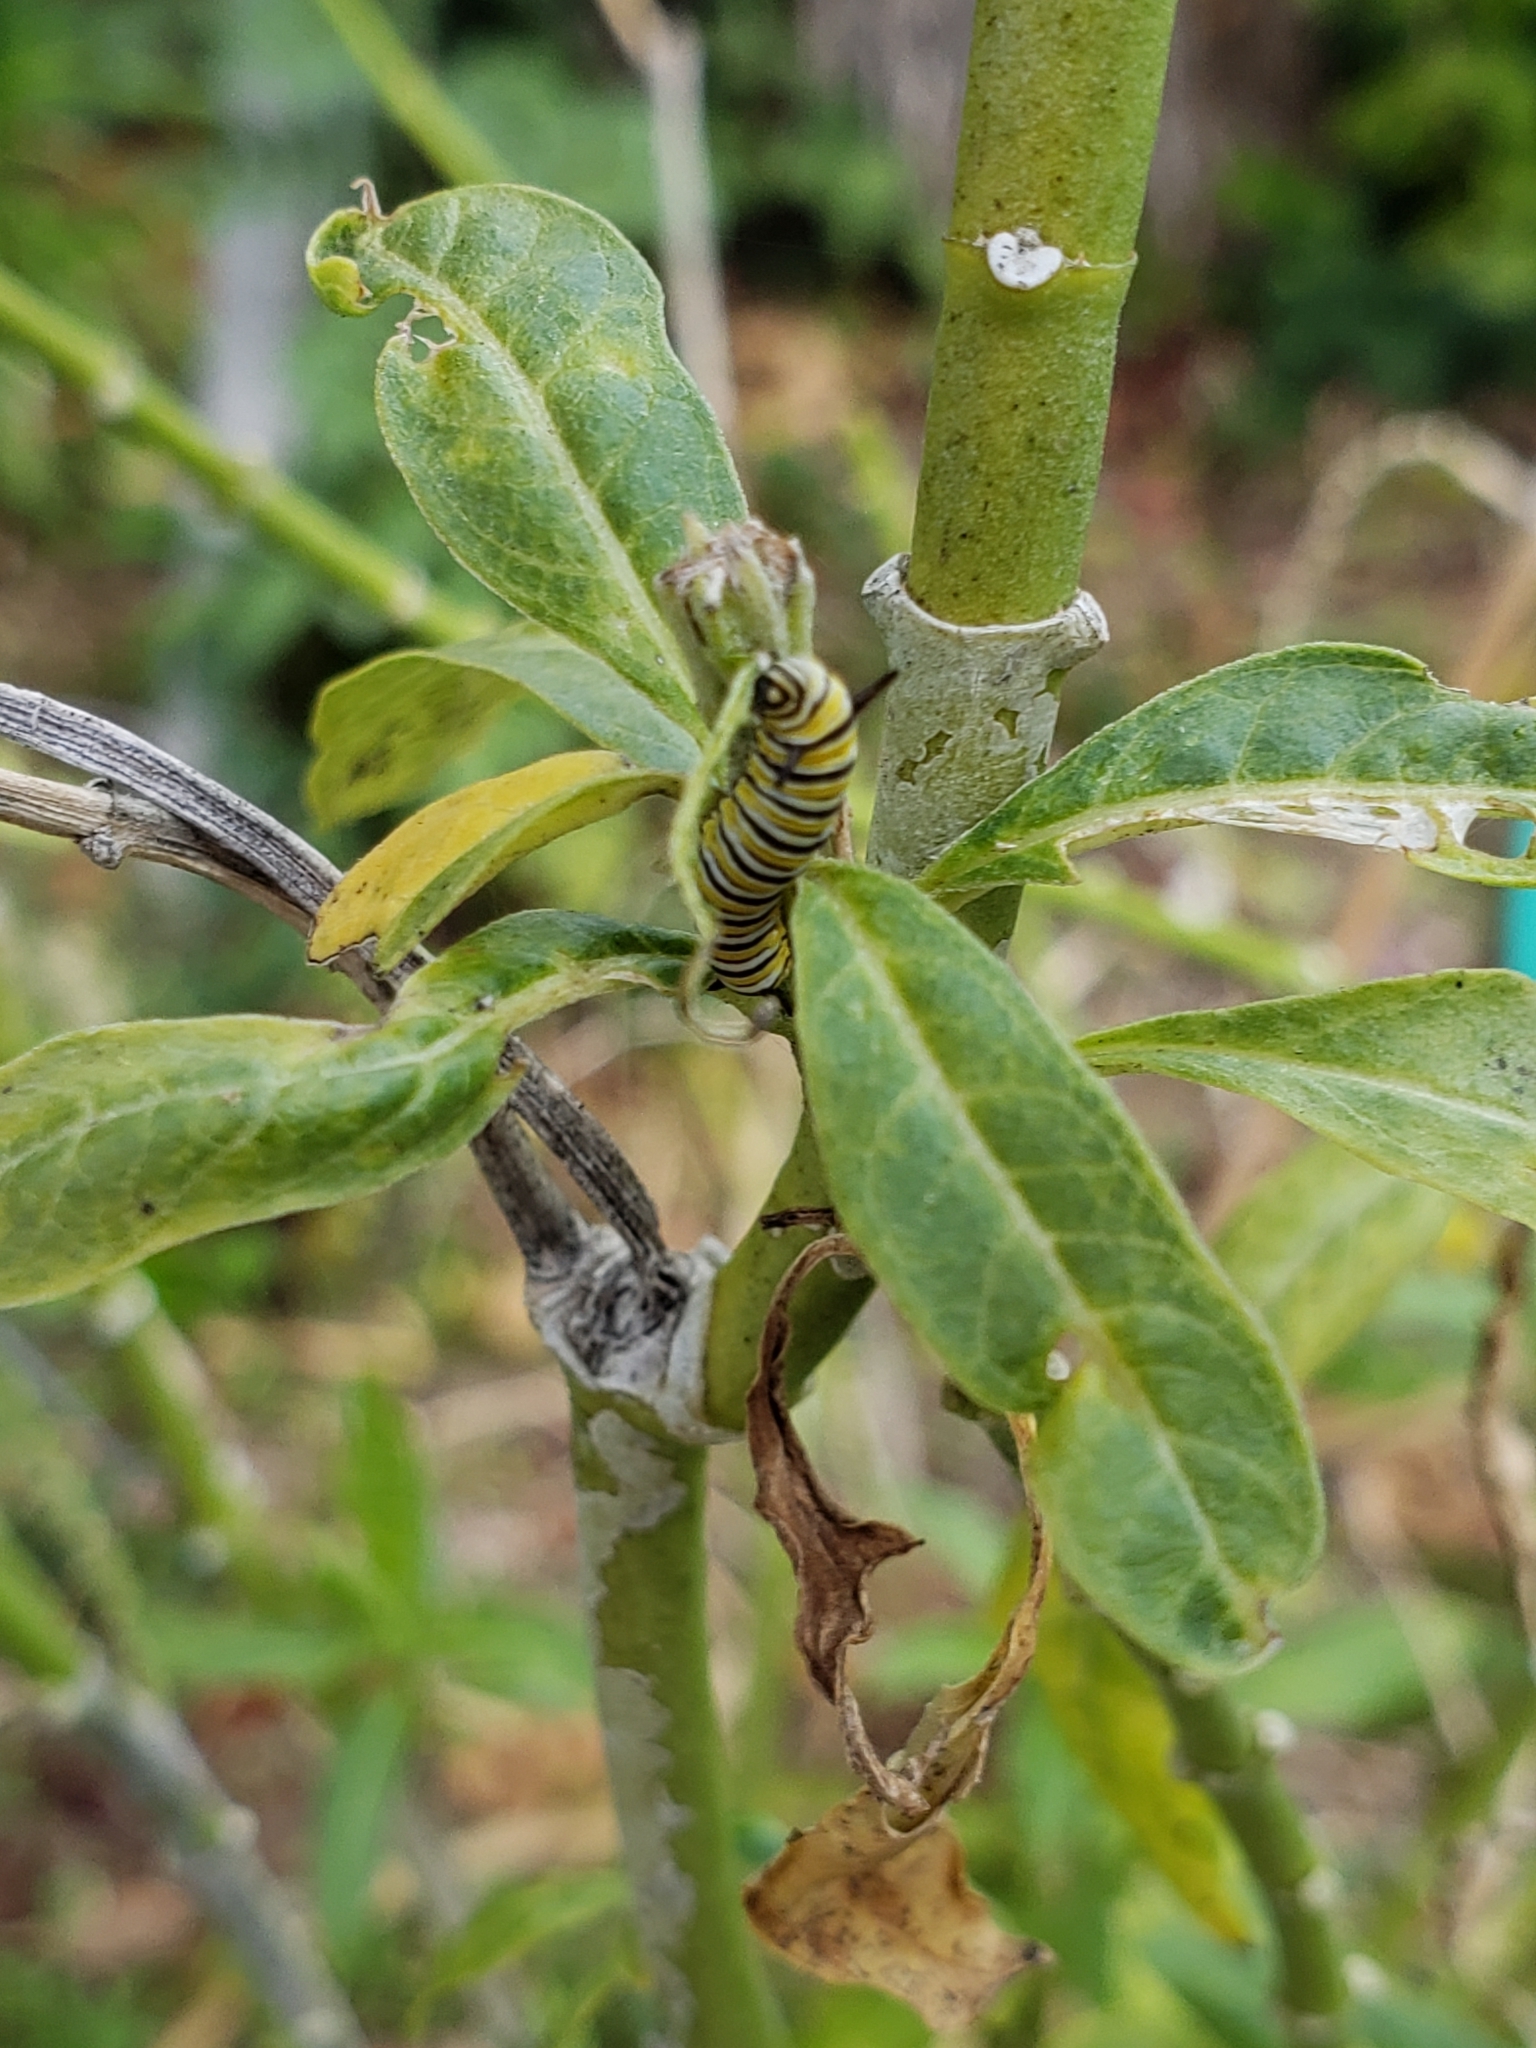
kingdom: Animalia
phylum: Arthropoda
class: Insecta
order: Lepidoptera
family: Nymphalidae
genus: Danaus
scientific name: Danaus plexippus
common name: Monarch
